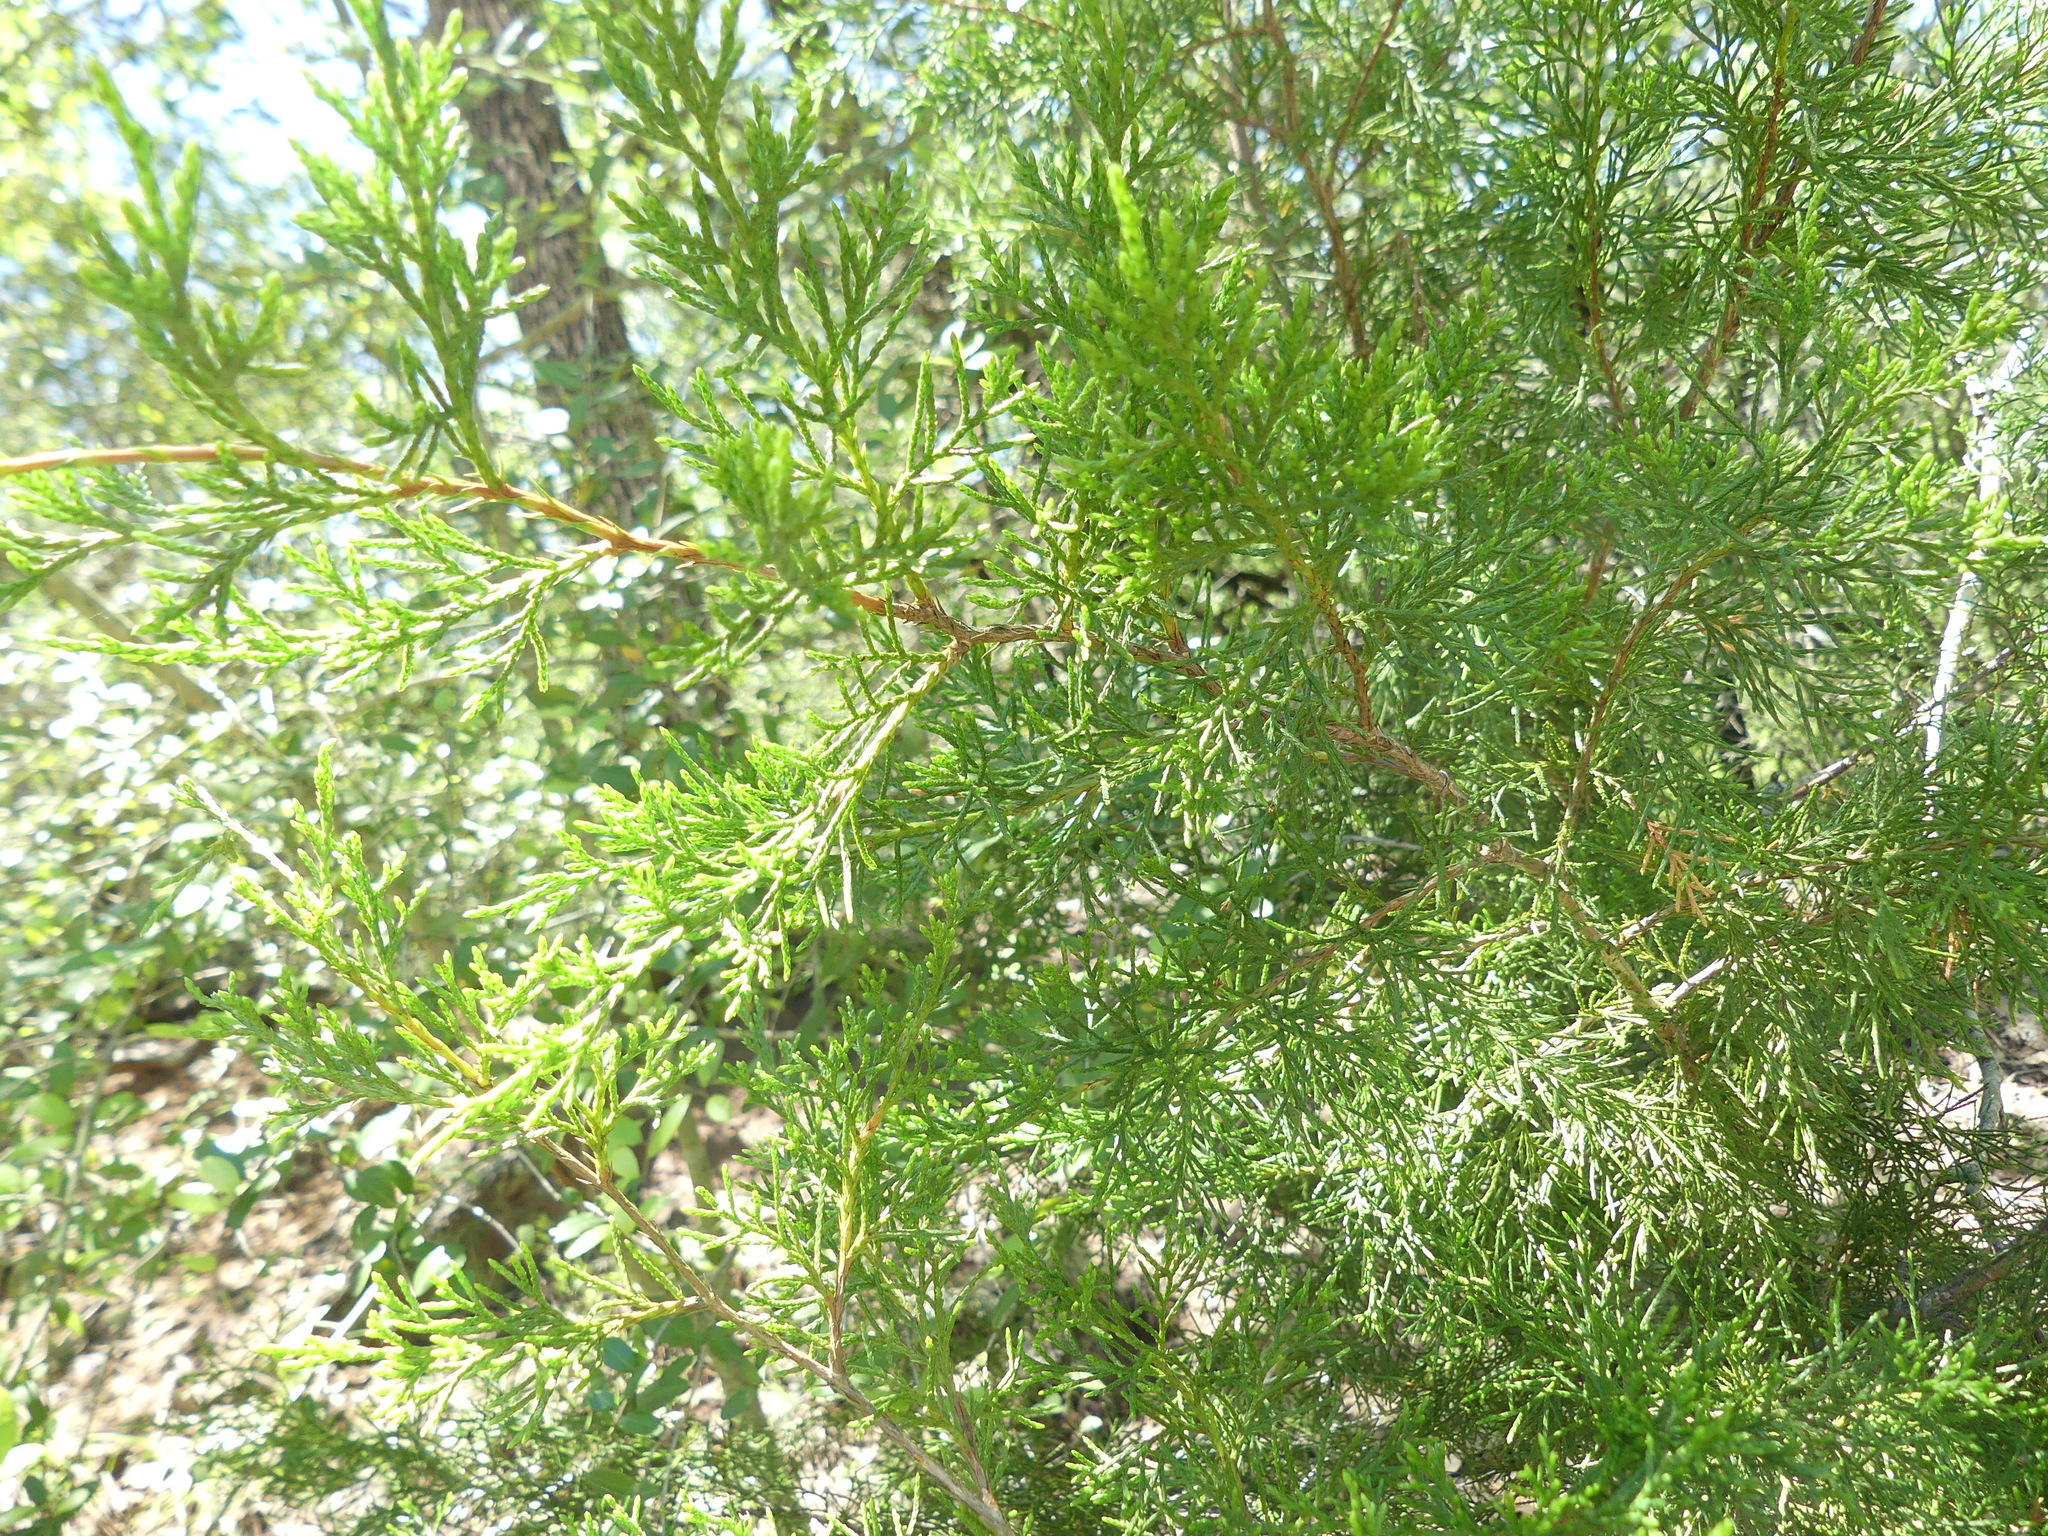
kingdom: Plantae
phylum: Tracheophyta
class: Pinopsida
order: Pinales
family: Cupressaceae
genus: Juniperus
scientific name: Juniperus virginiana
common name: Red juniper
